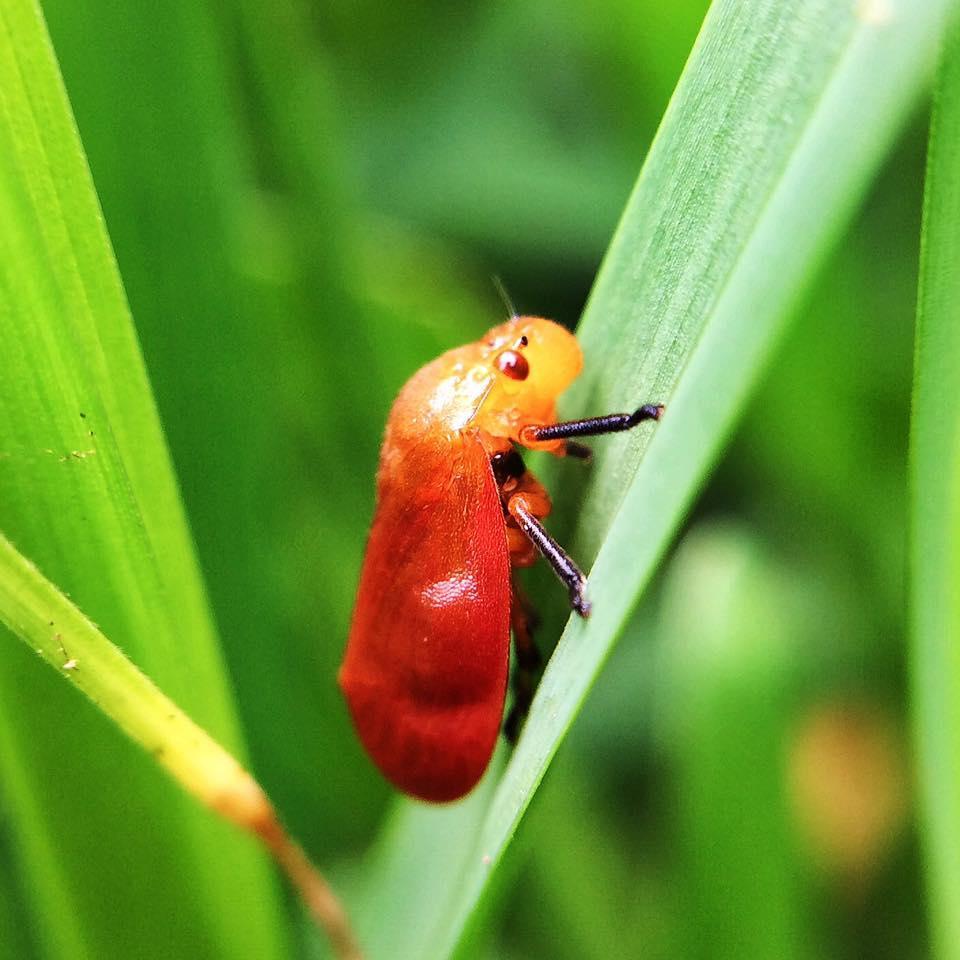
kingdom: Animalia
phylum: Arthropoda
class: Insecta
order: Hemiptera
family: Cercopidae
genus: Bandusia
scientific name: Bandusia rubicunda
